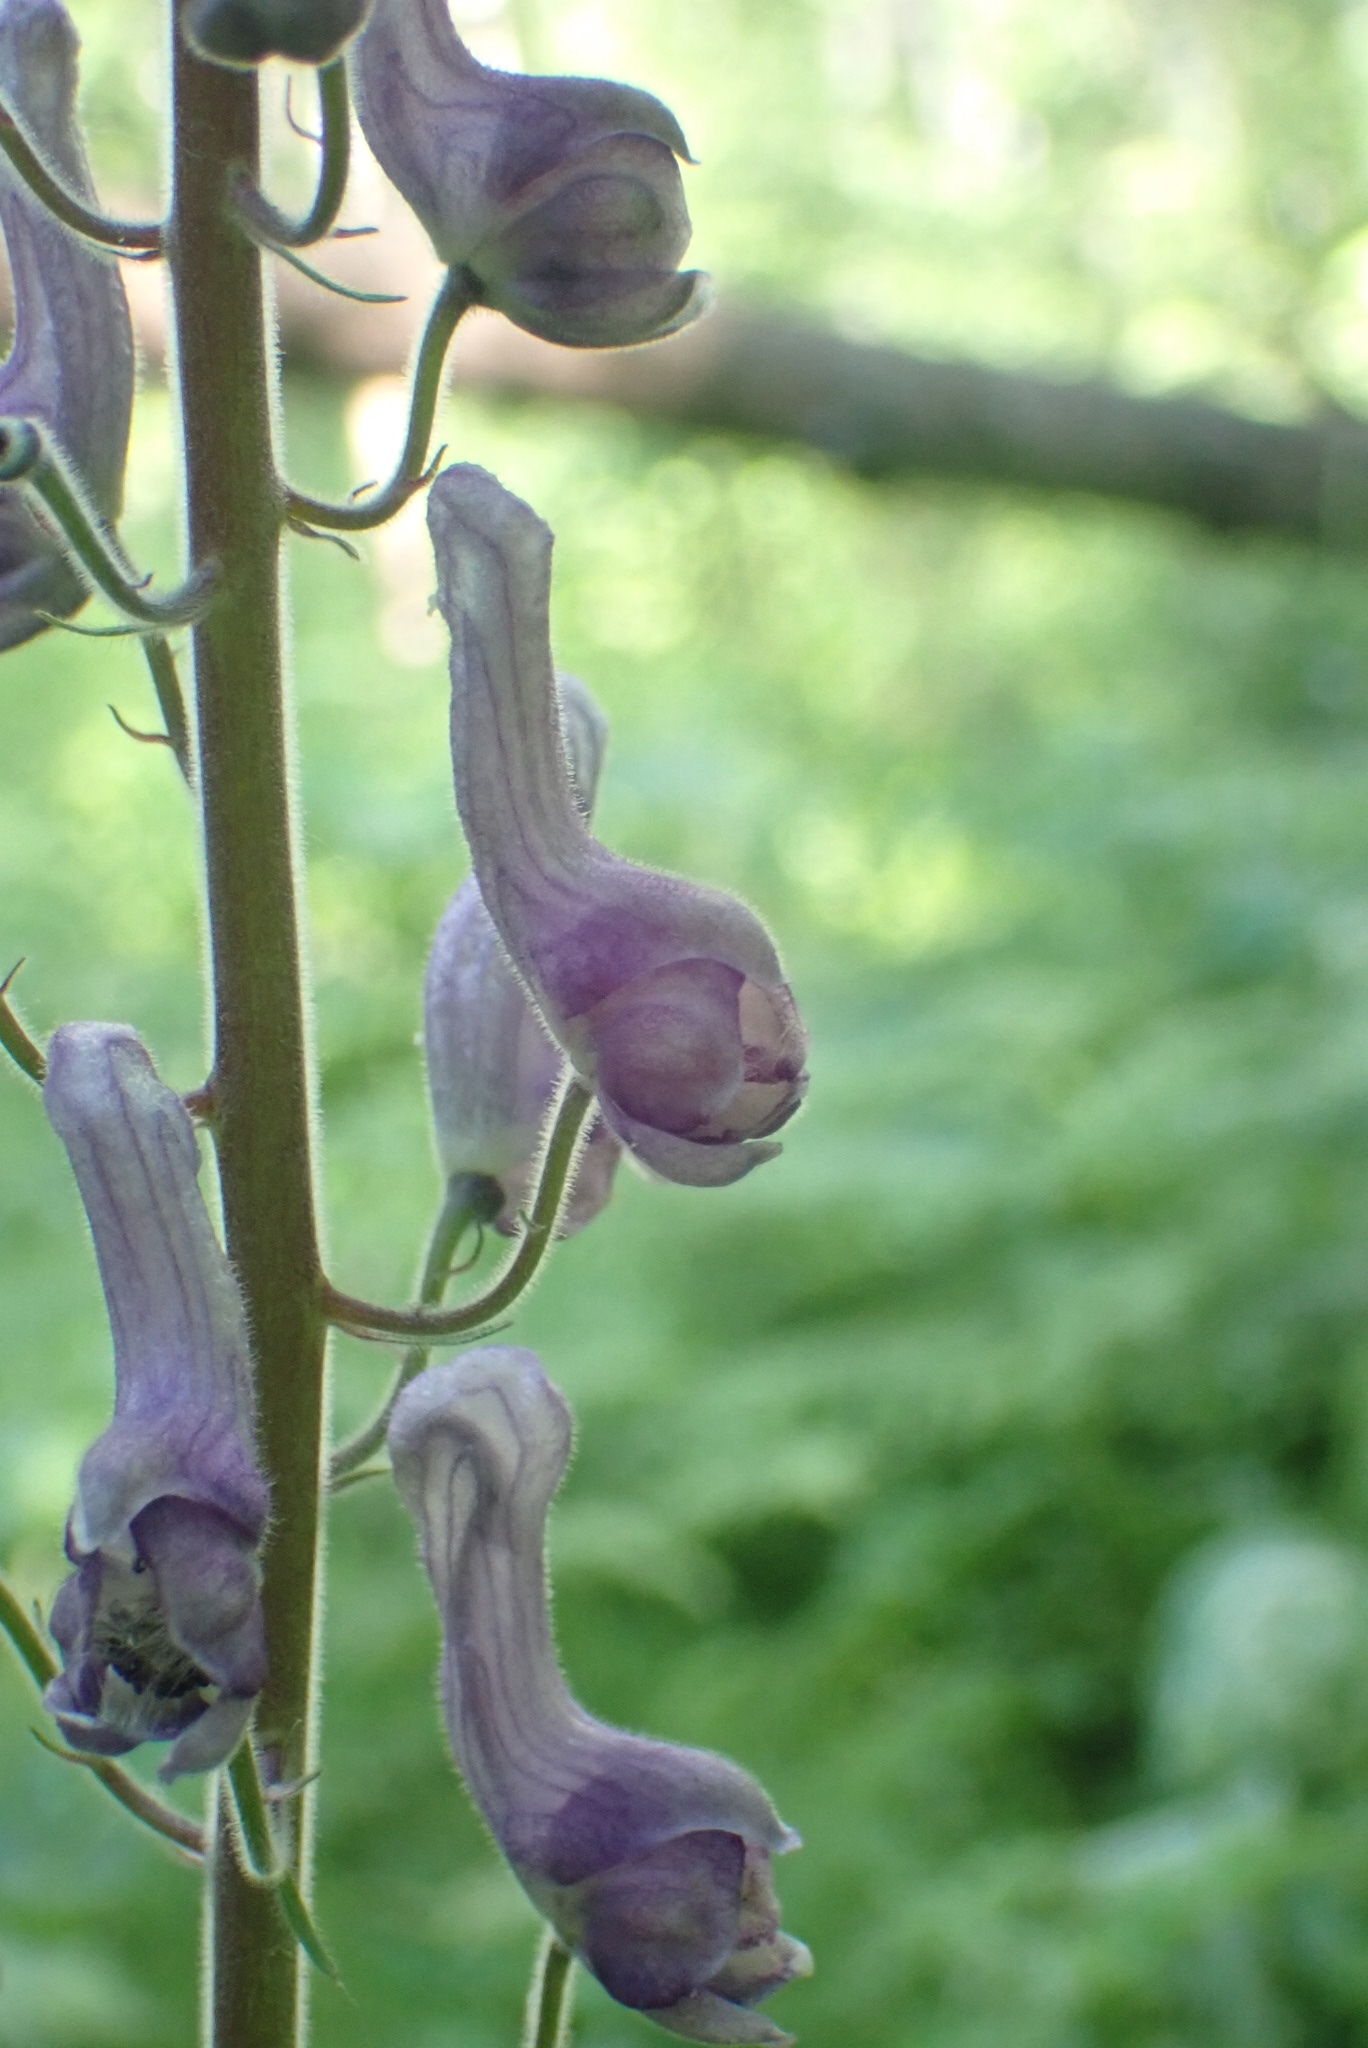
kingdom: Plantae
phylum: Tracheophyta
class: Magnoliopsida
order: Ranunculales
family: Ranunculaceae
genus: Aconitum
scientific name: Aconitum septentrionale
